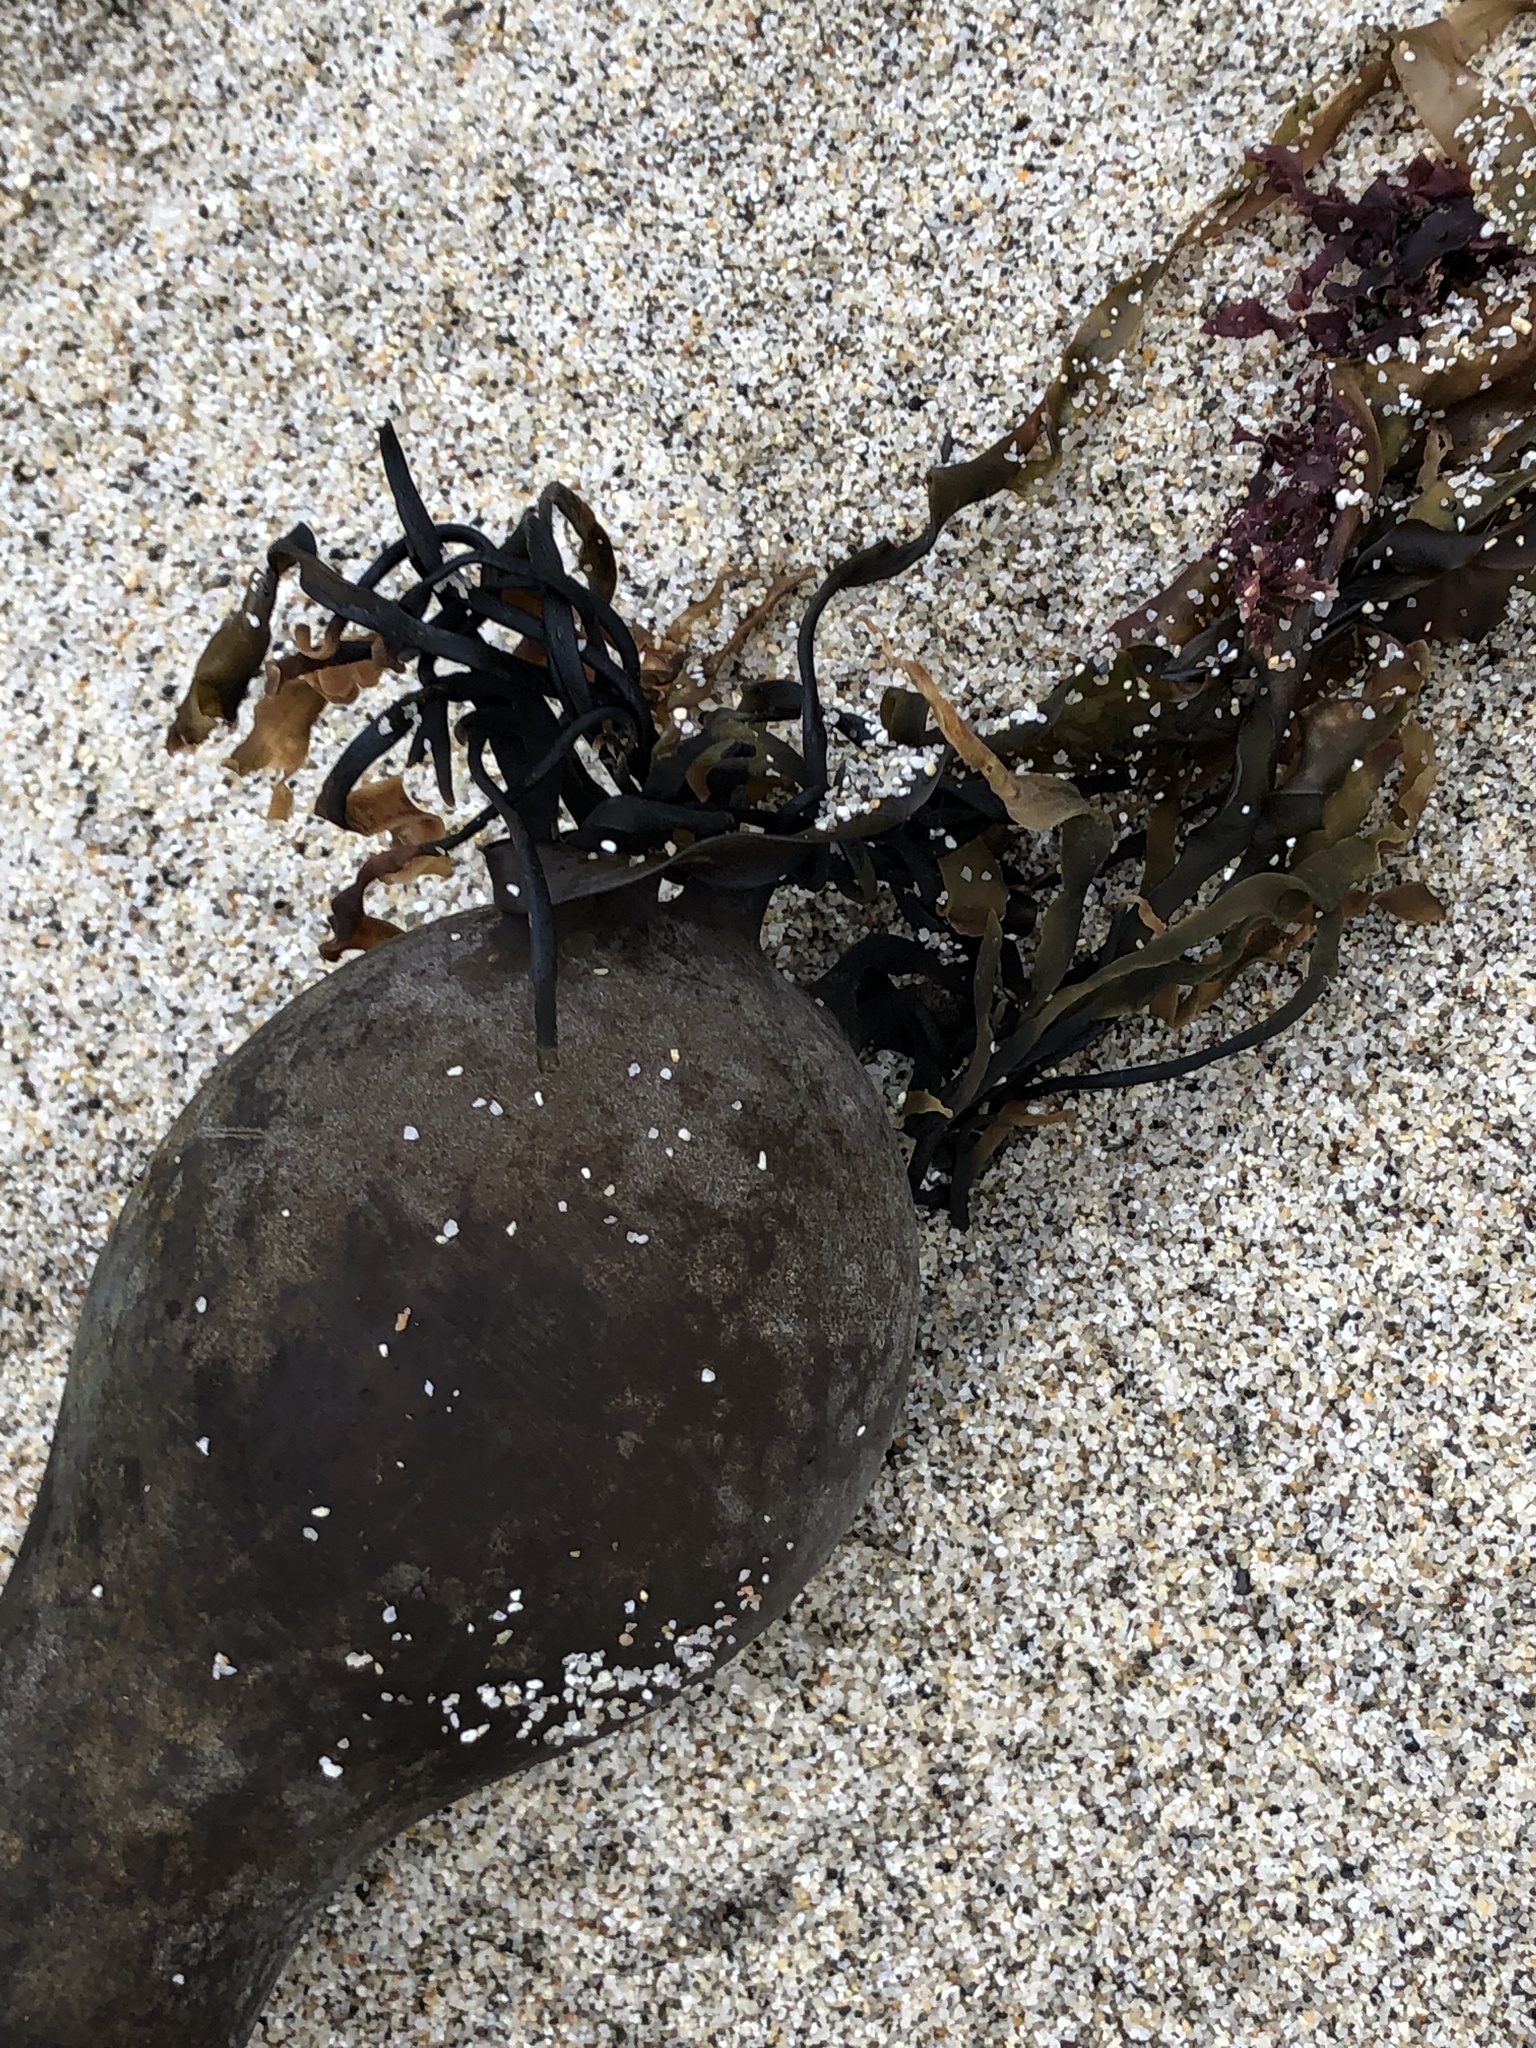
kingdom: Chromista
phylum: Ochrophyta
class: Phaeophyceae
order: Laminariales
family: Laminariaceae
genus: Nereocystis
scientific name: Nereocystis luetkeana
